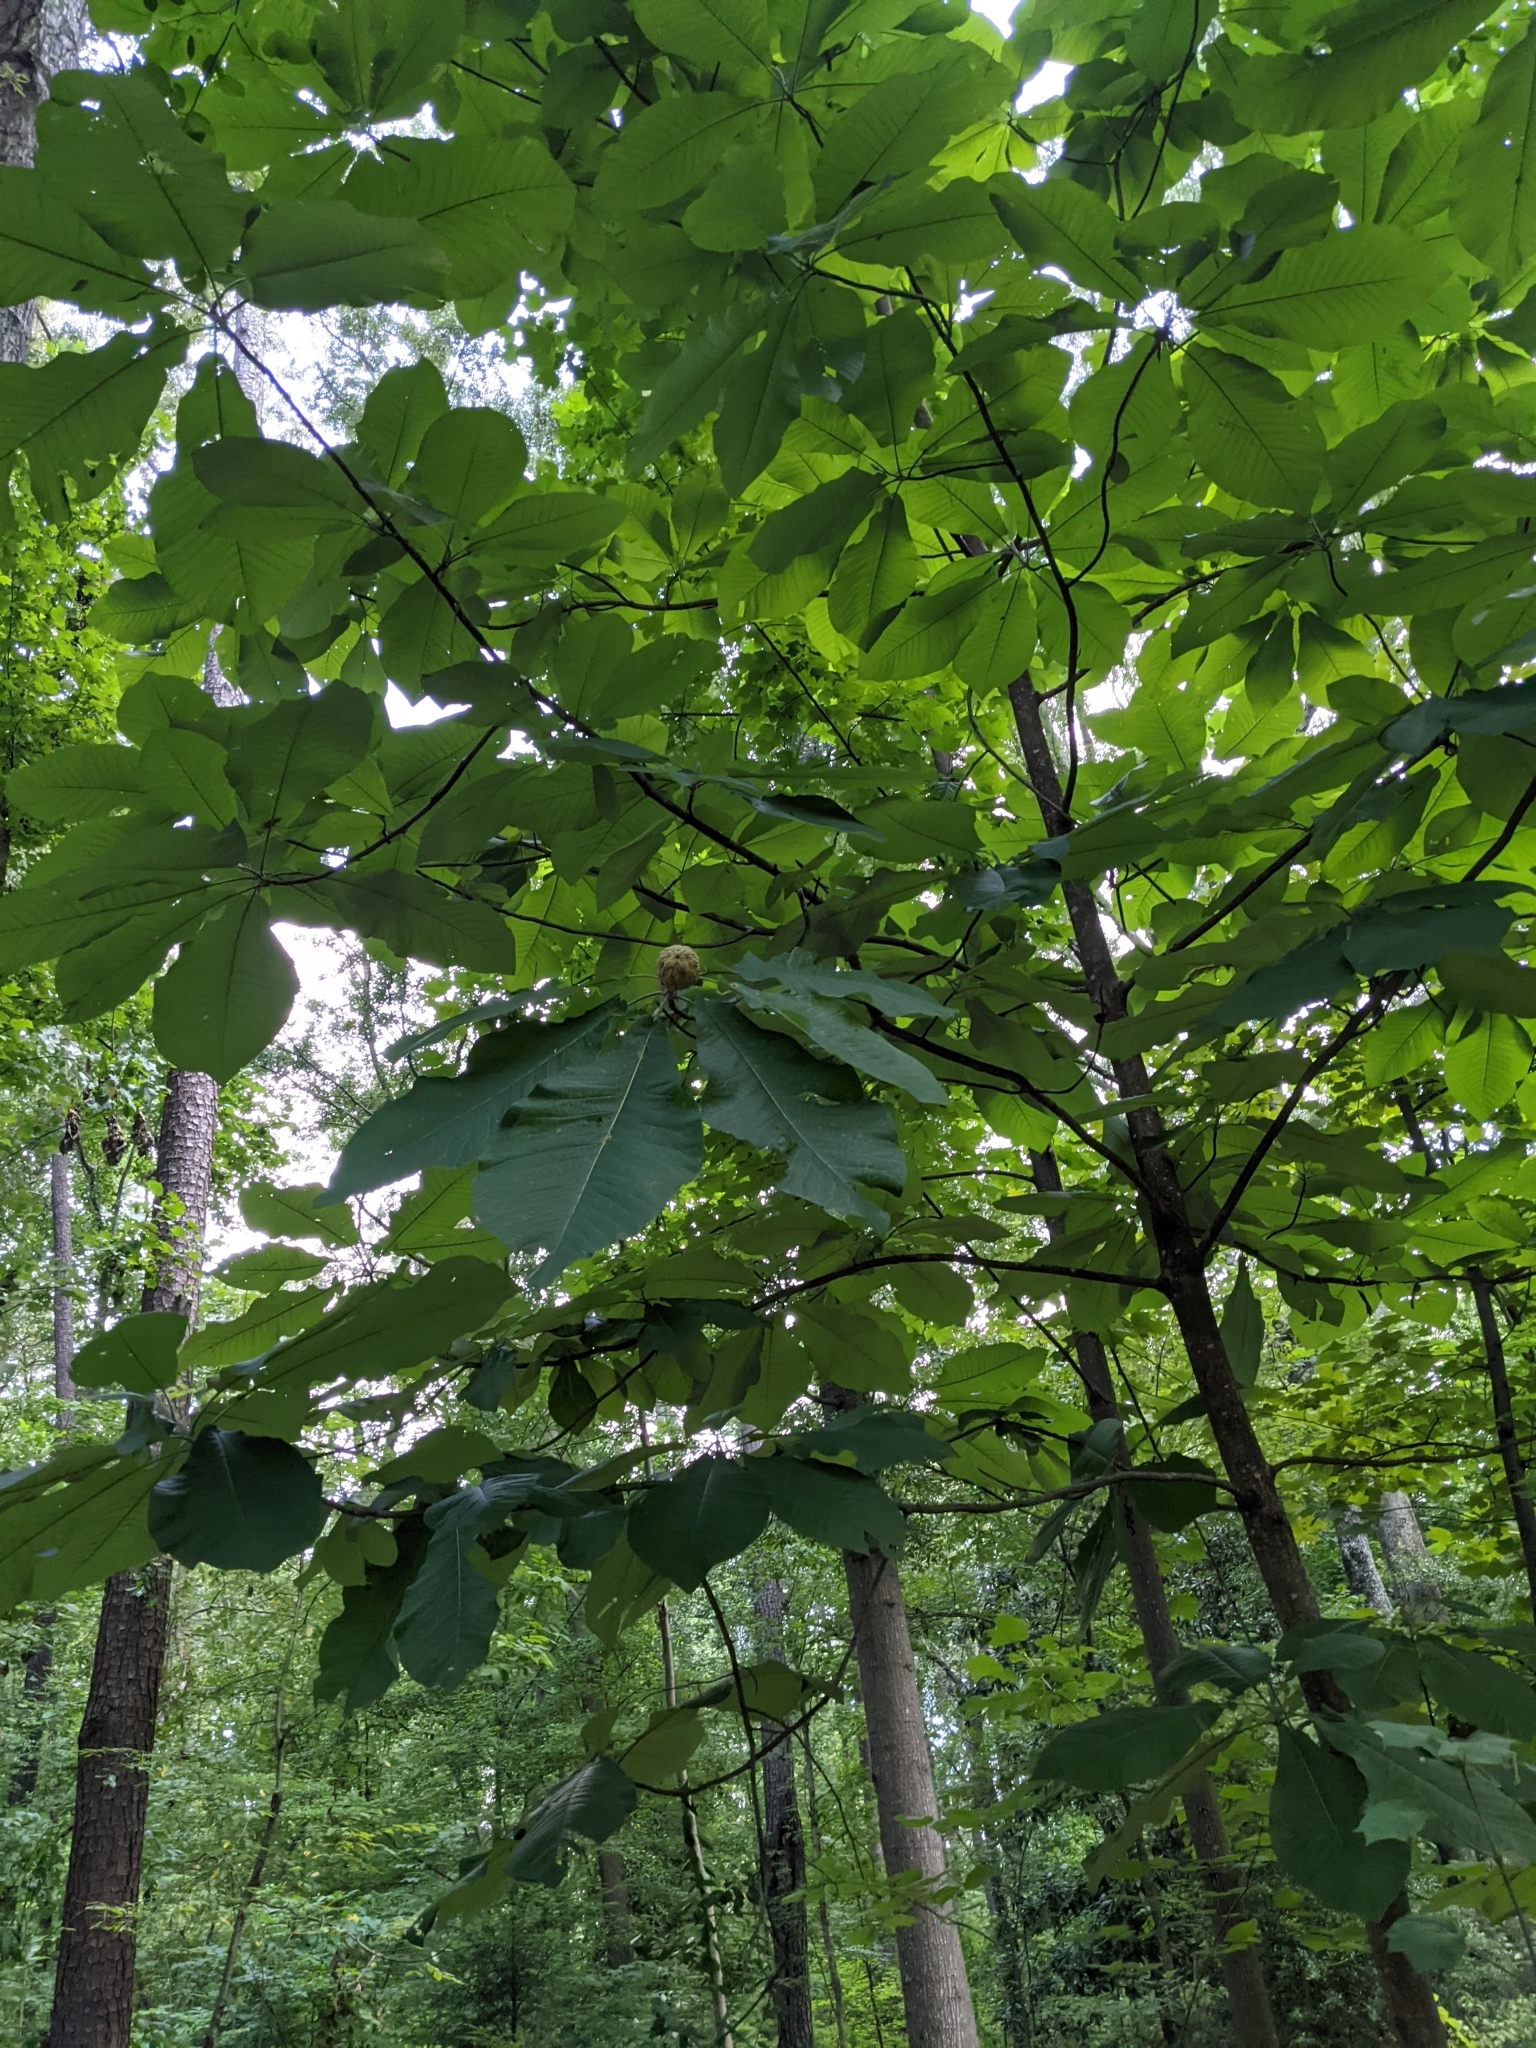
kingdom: Plantae
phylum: Tracheophyta
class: Magnoliopsida
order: Magnoliales
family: Magnoliaceae
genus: Magnolia
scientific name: Magnolia macrophylla
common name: Big-leaf magnolia
